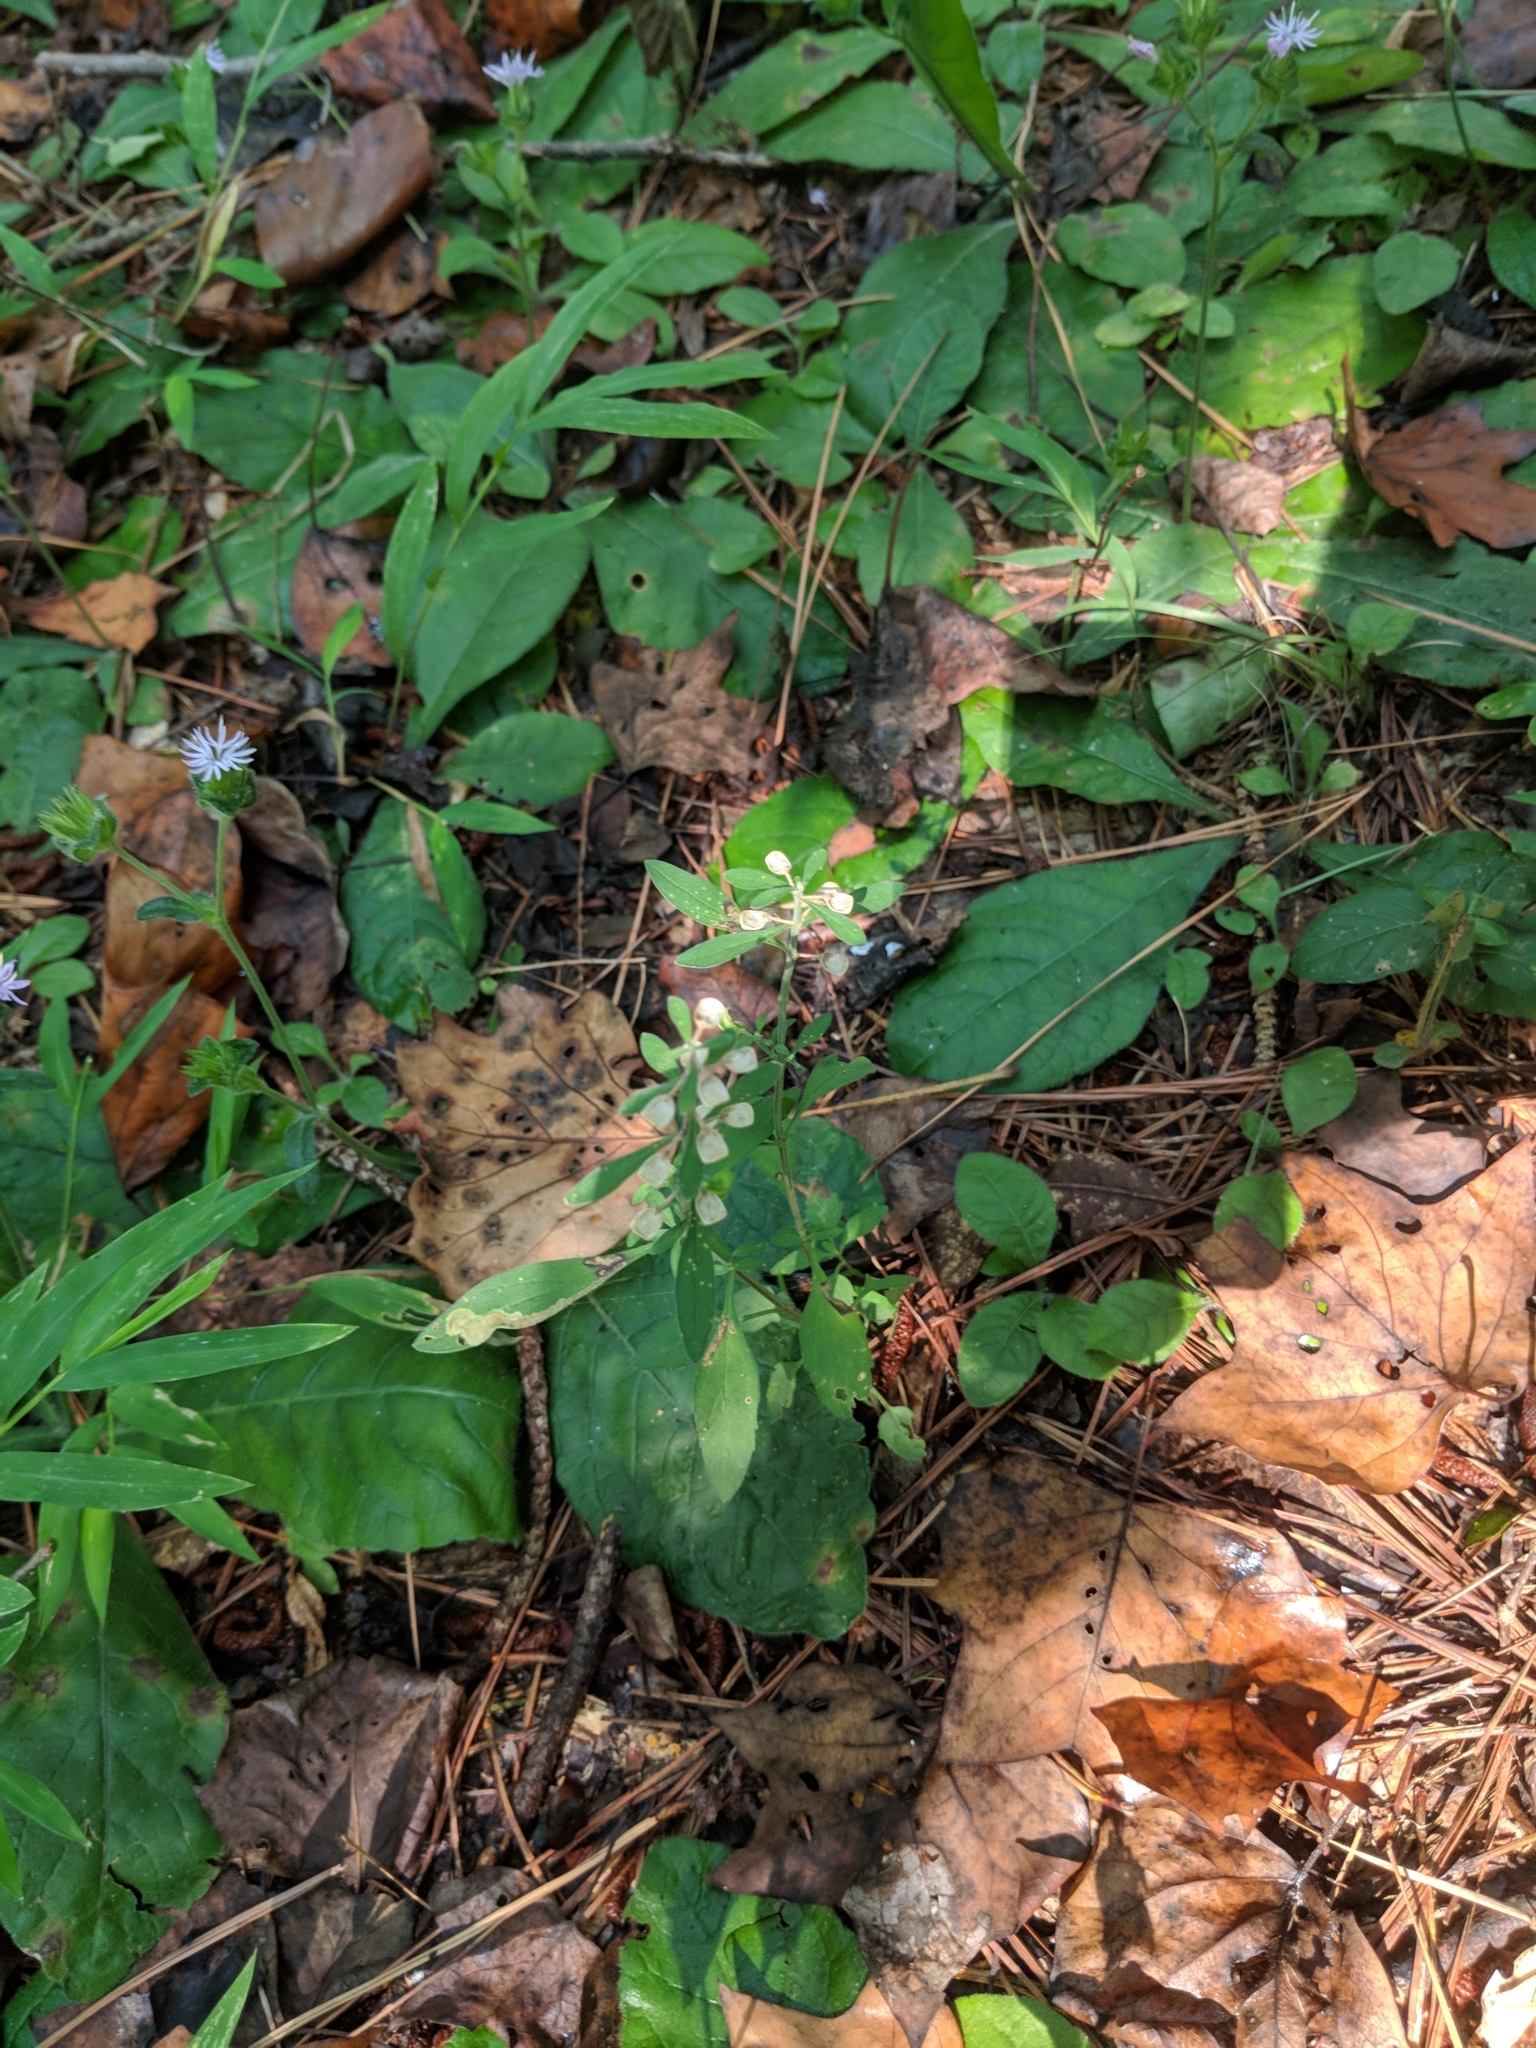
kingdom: Plantae
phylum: Tracheophyta
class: Magnoliopsida
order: Lamiales
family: Lamiaceae
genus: Scutellaria
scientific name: Scutellaria integrifolia
